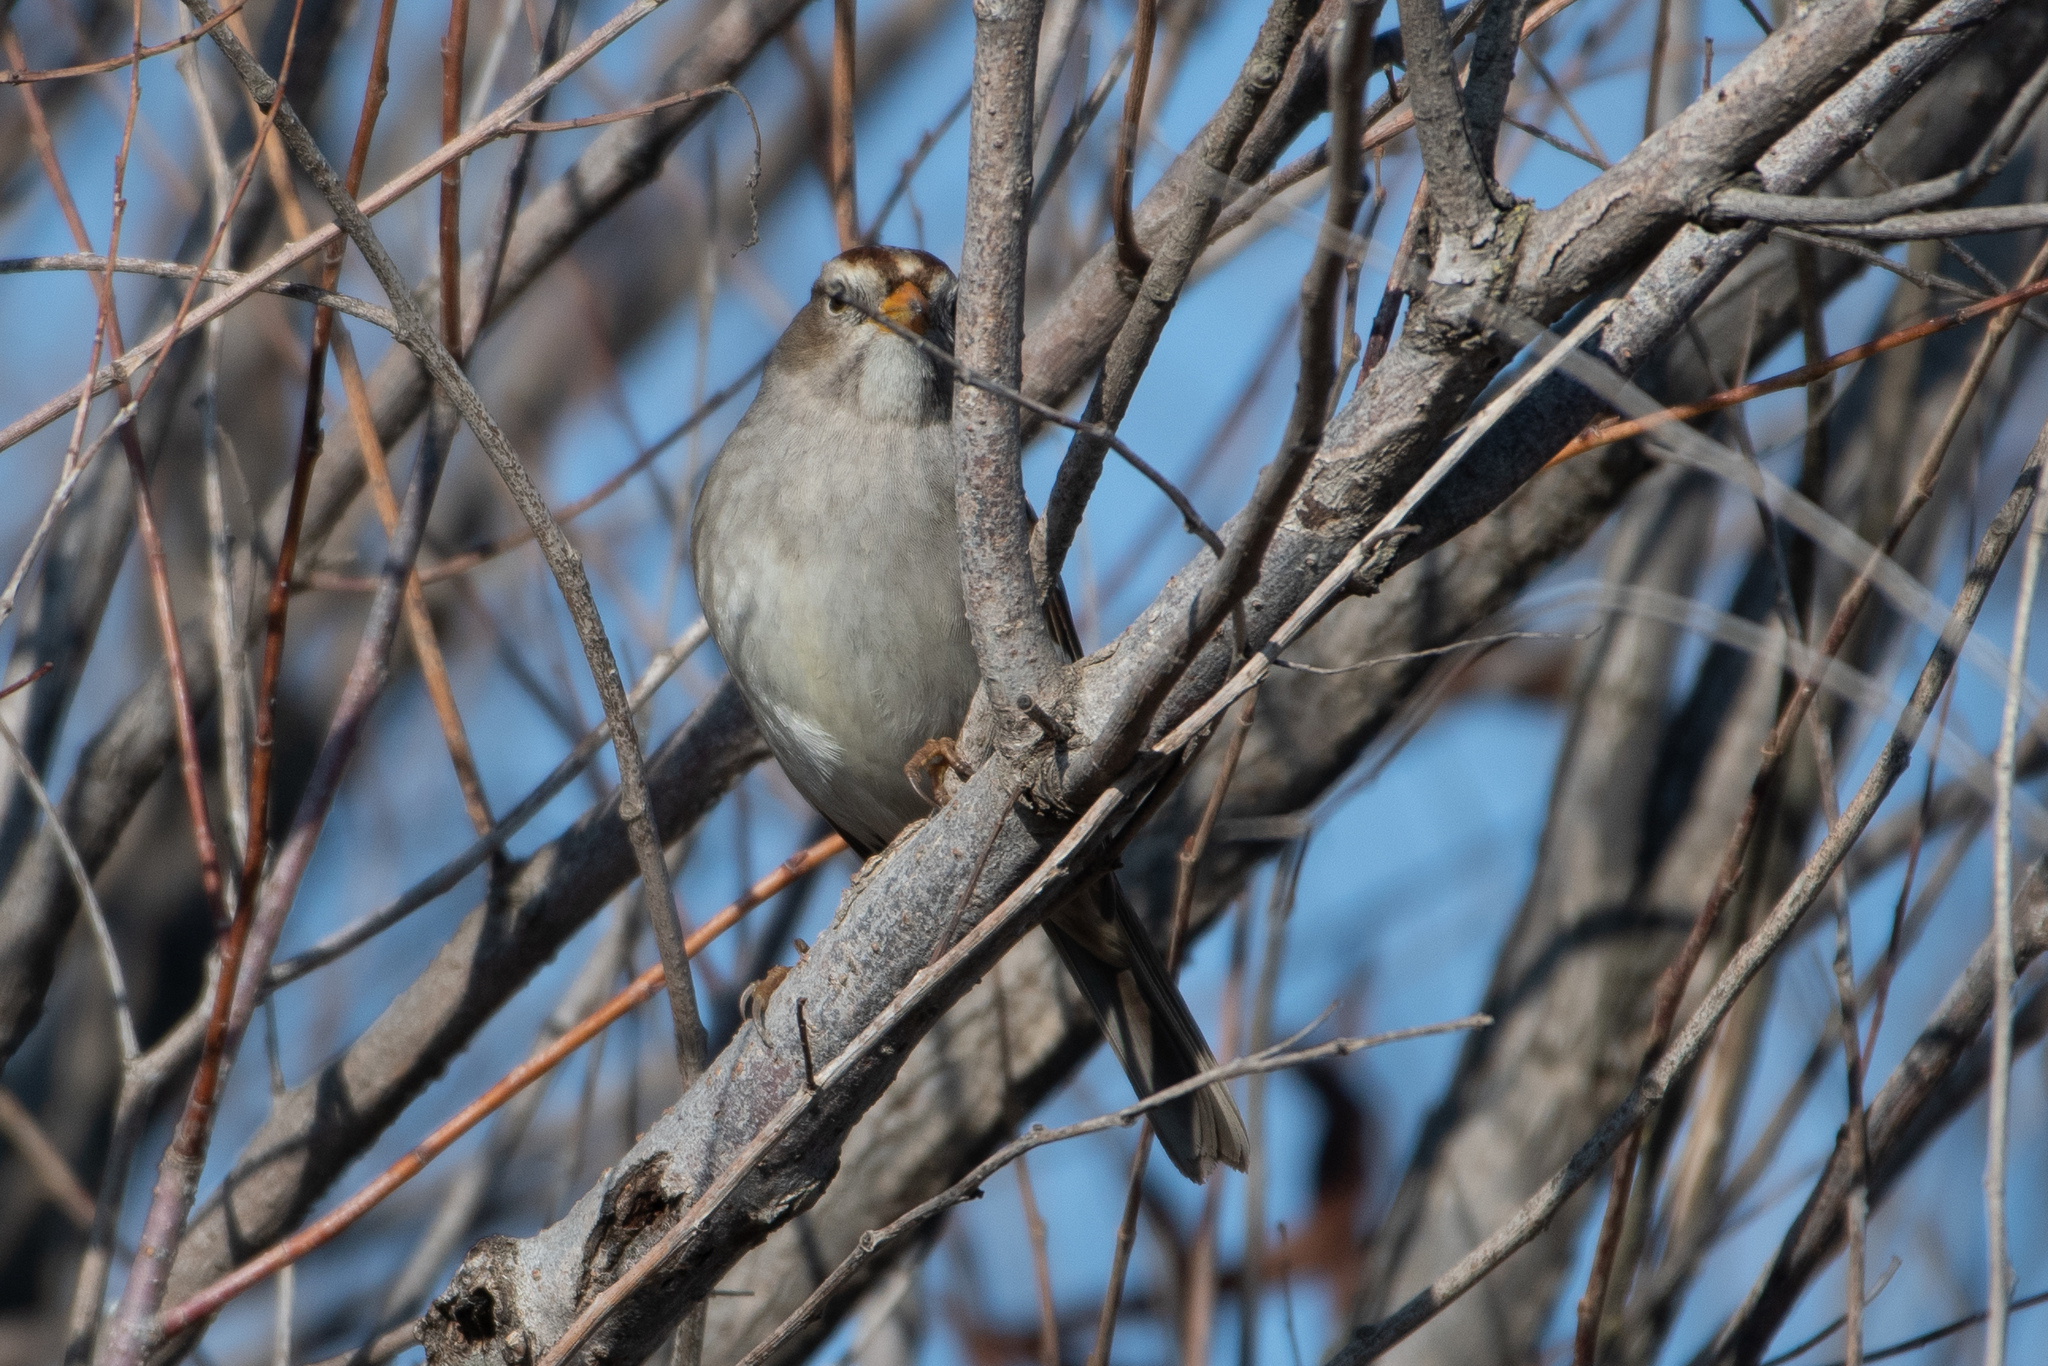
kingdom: Animalia
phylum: Chordata
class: Aves
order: Passeriformes
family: Passerellidae
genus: Zonotrichia
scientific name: Zonotrichia leucophrys
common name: White-crowned sparrow
